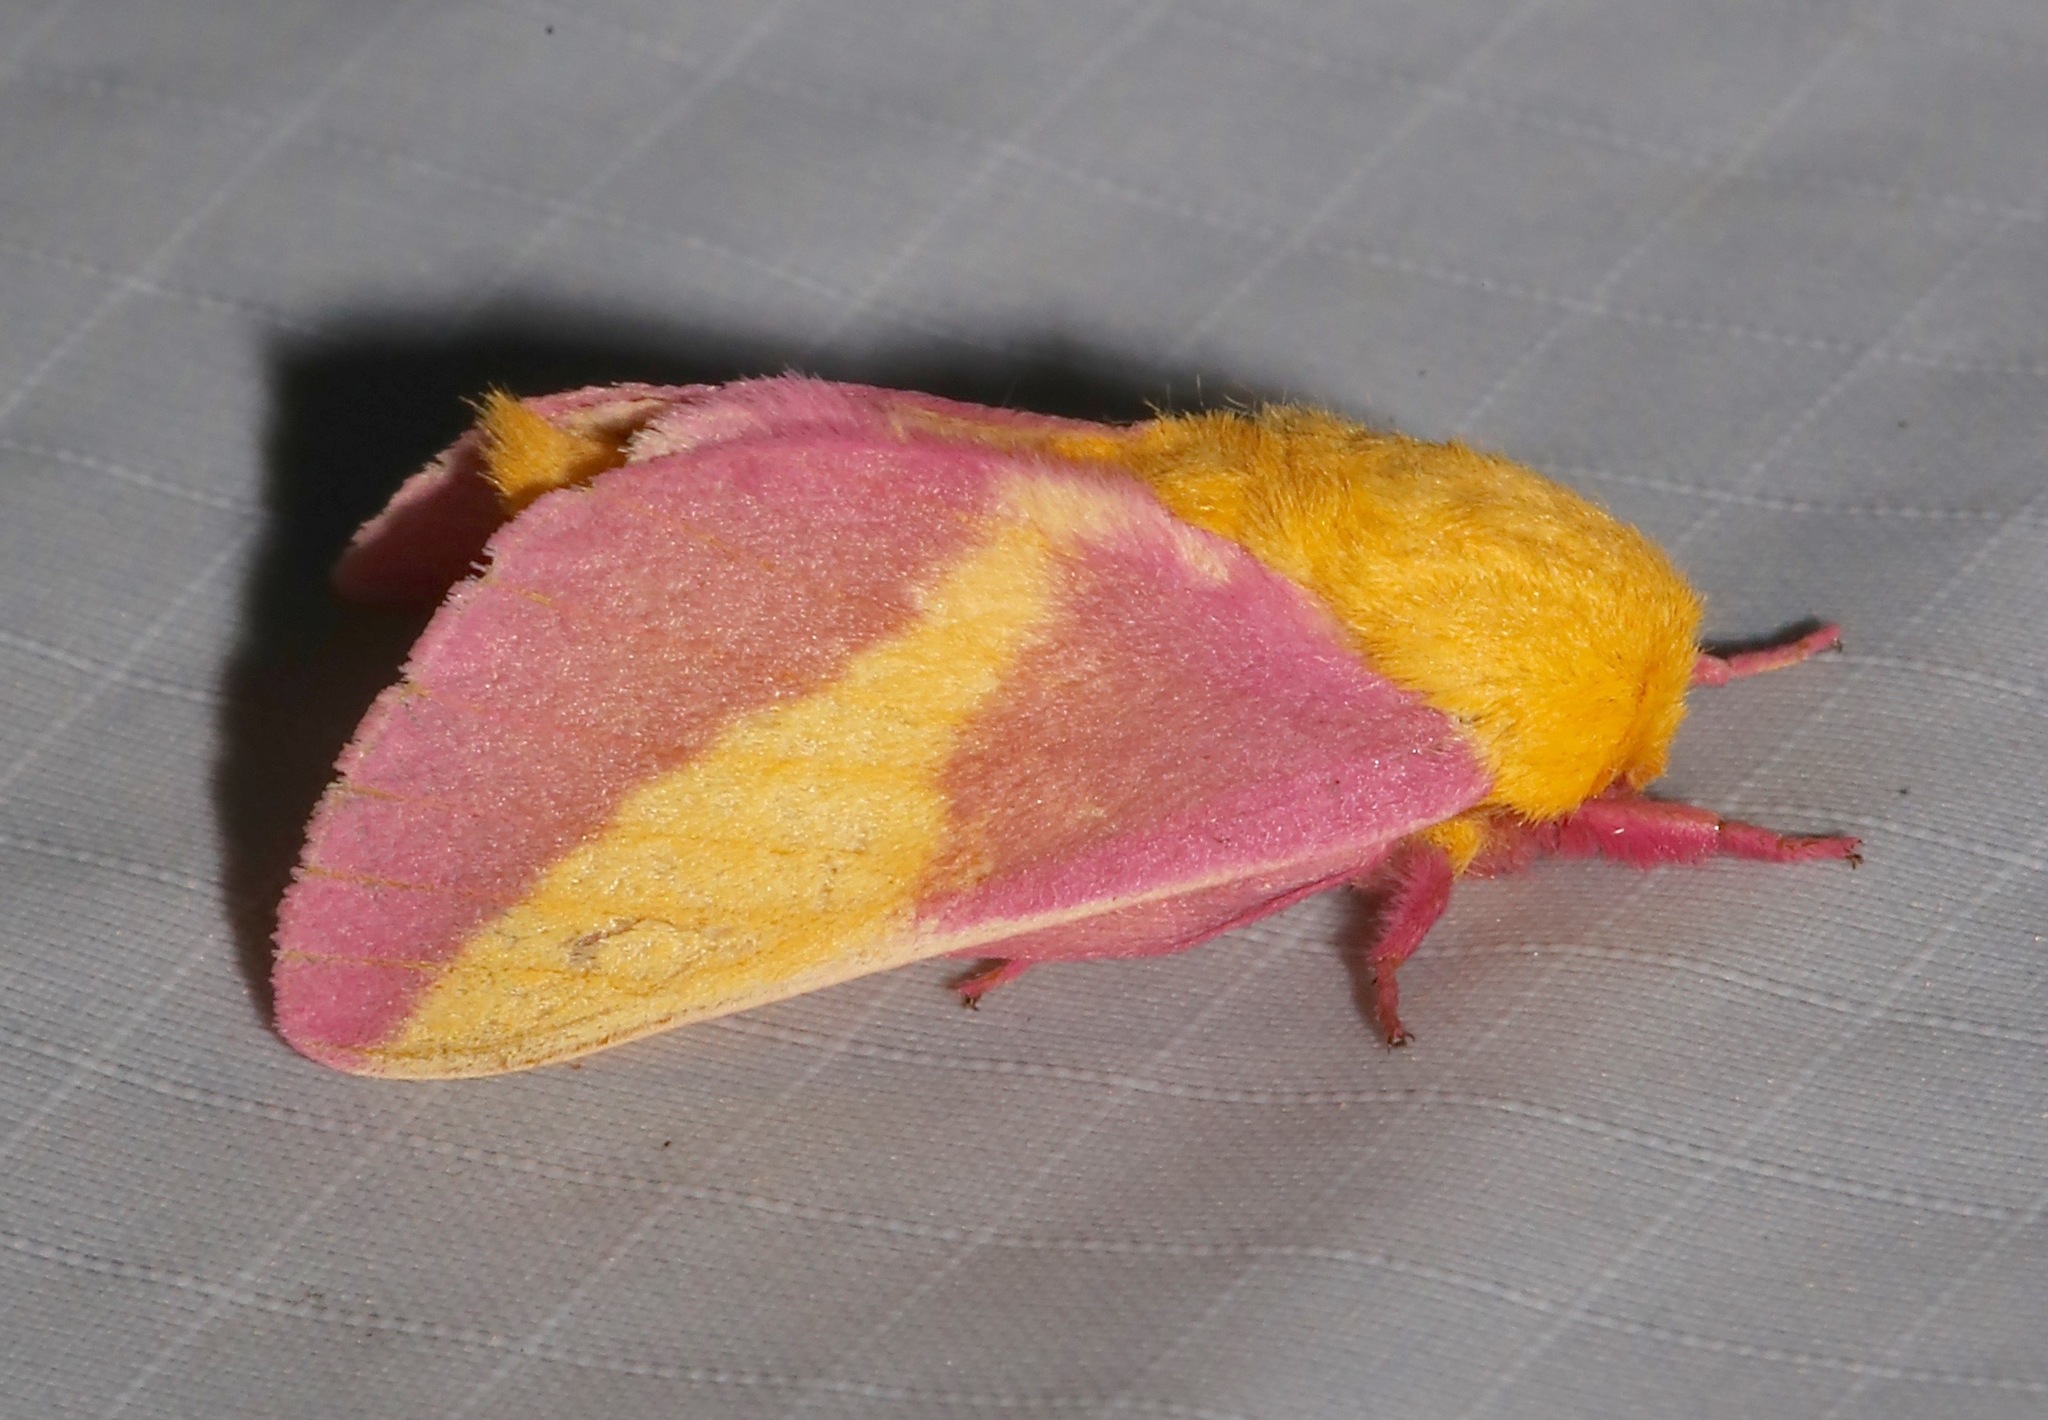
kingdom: Animalia
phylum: Arthropoda
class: Insecta
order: Lepidoptera
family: Saturniidae
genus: Dryocampa
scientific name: Dryocampa rubicunda
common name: Rosy maple moth
